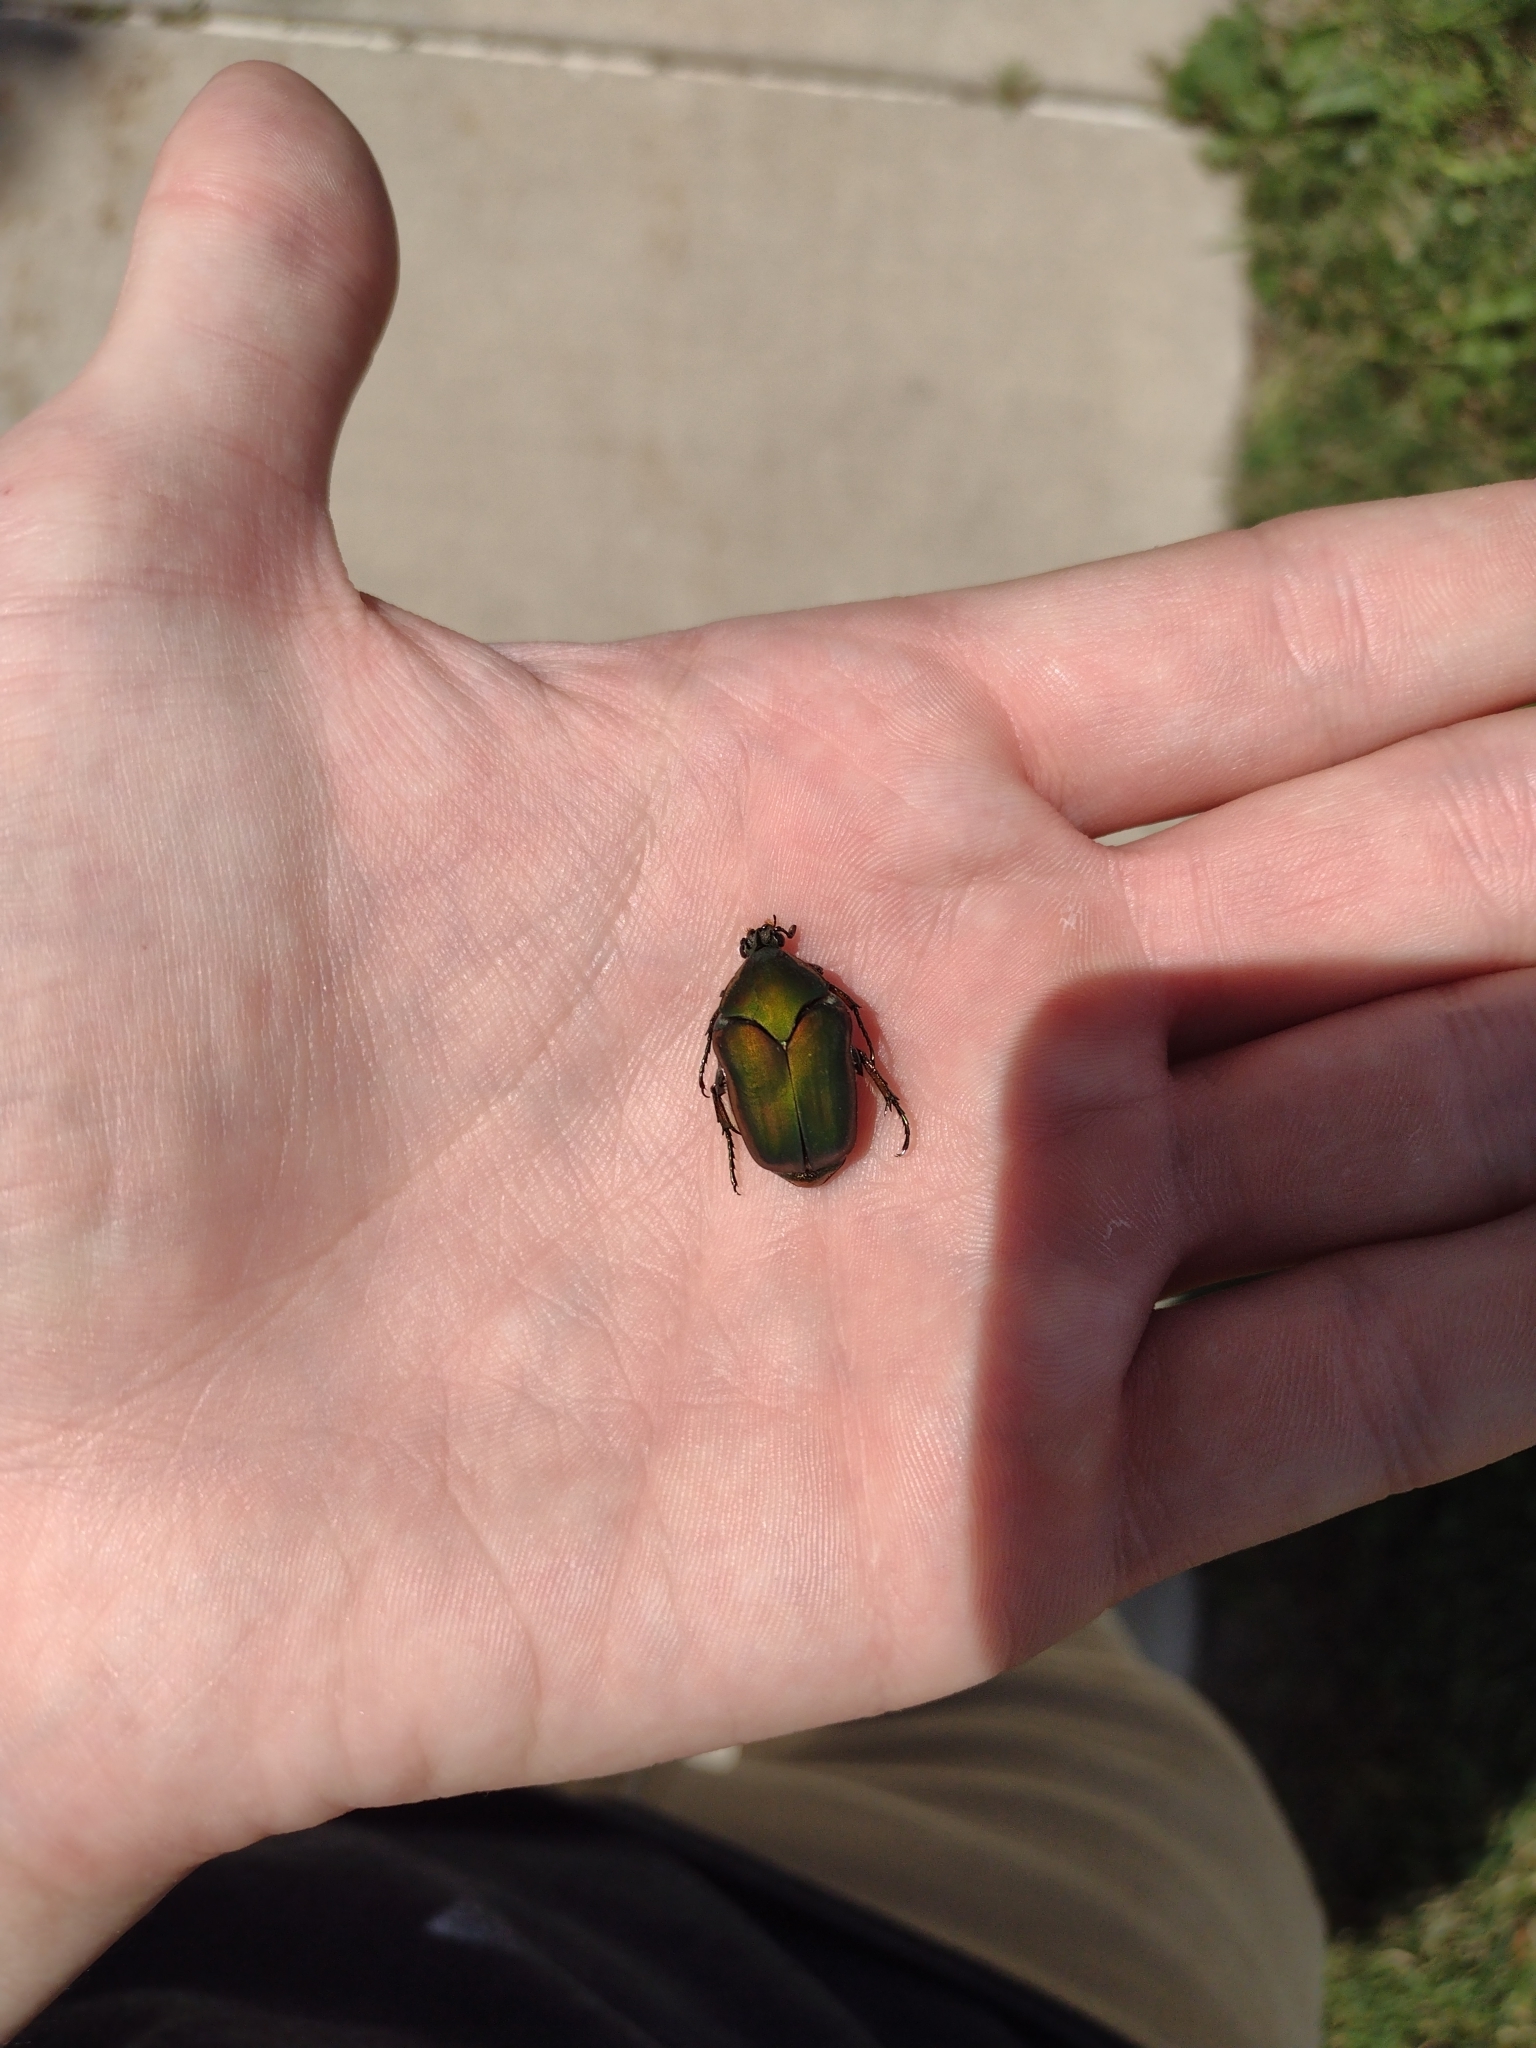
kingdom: Animalia
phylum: Arthropoda
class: Insecta
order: Coleoptera
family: Scarabaeidae
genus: Cotinis
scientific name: Cotinis nitida
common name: Common green june beetle
